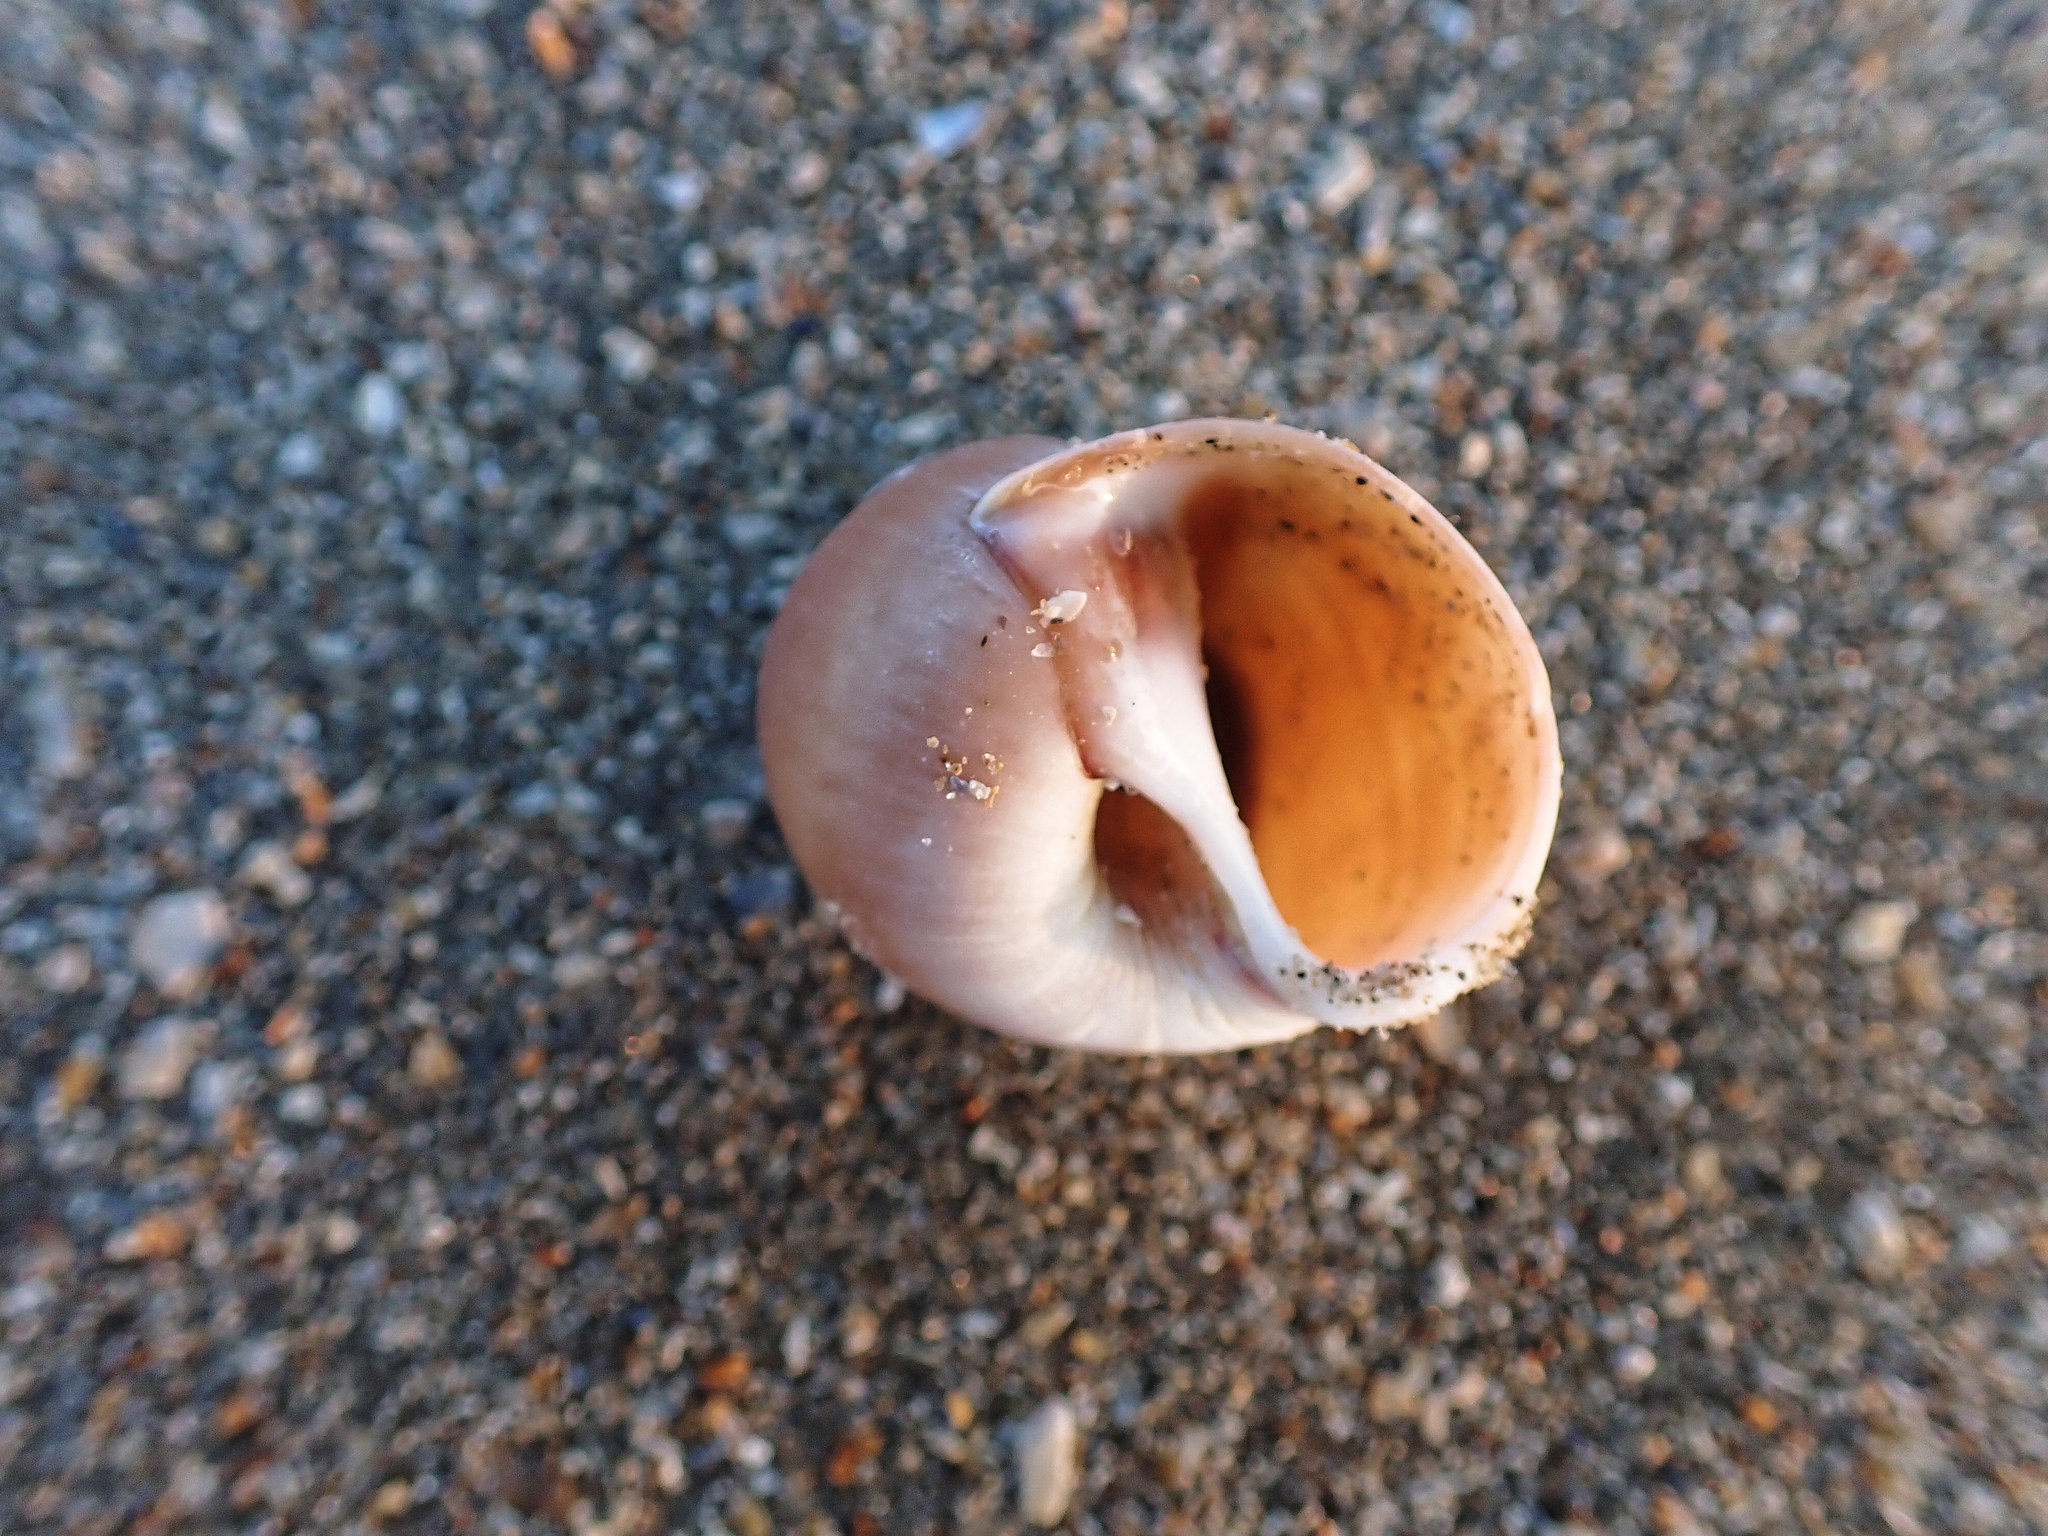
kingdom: Animalia
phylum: Mollusca
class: Gastropoda
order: Littorinimorpha
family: Naticidae
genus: Euspira
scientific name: Euspira catena
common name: Necklace shell
